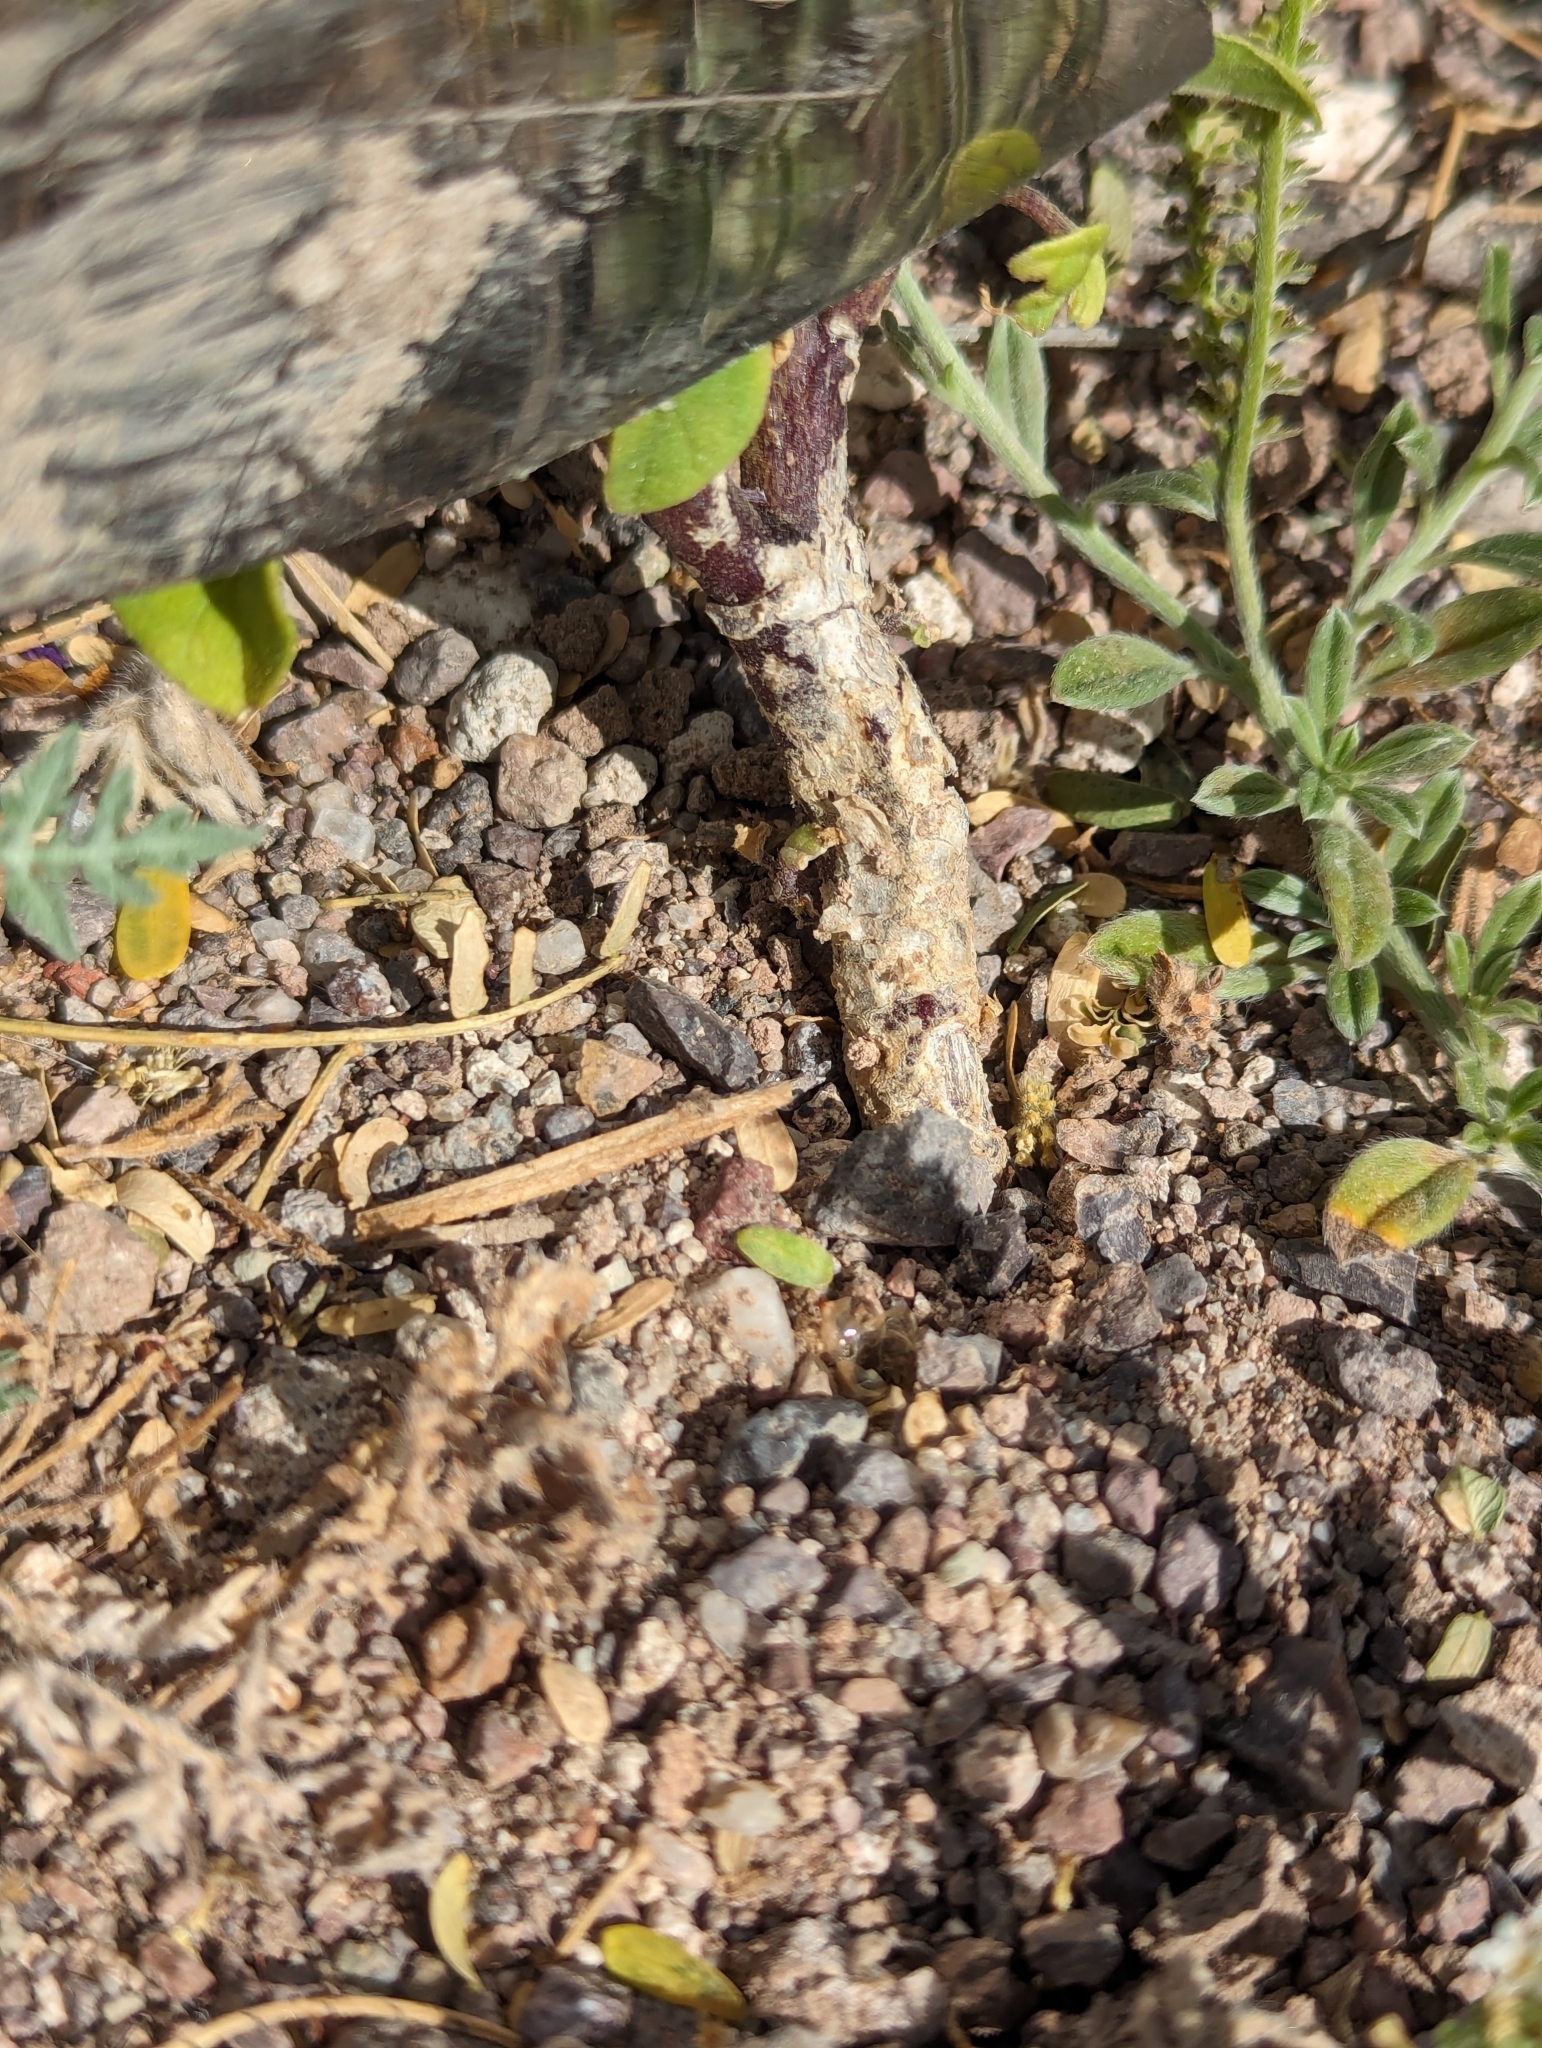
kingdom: Plantae
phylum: Tracheophyta
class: Magnoliopsida
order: Solanales
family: Solanaceae
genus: Datura
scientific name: Datura discolor
